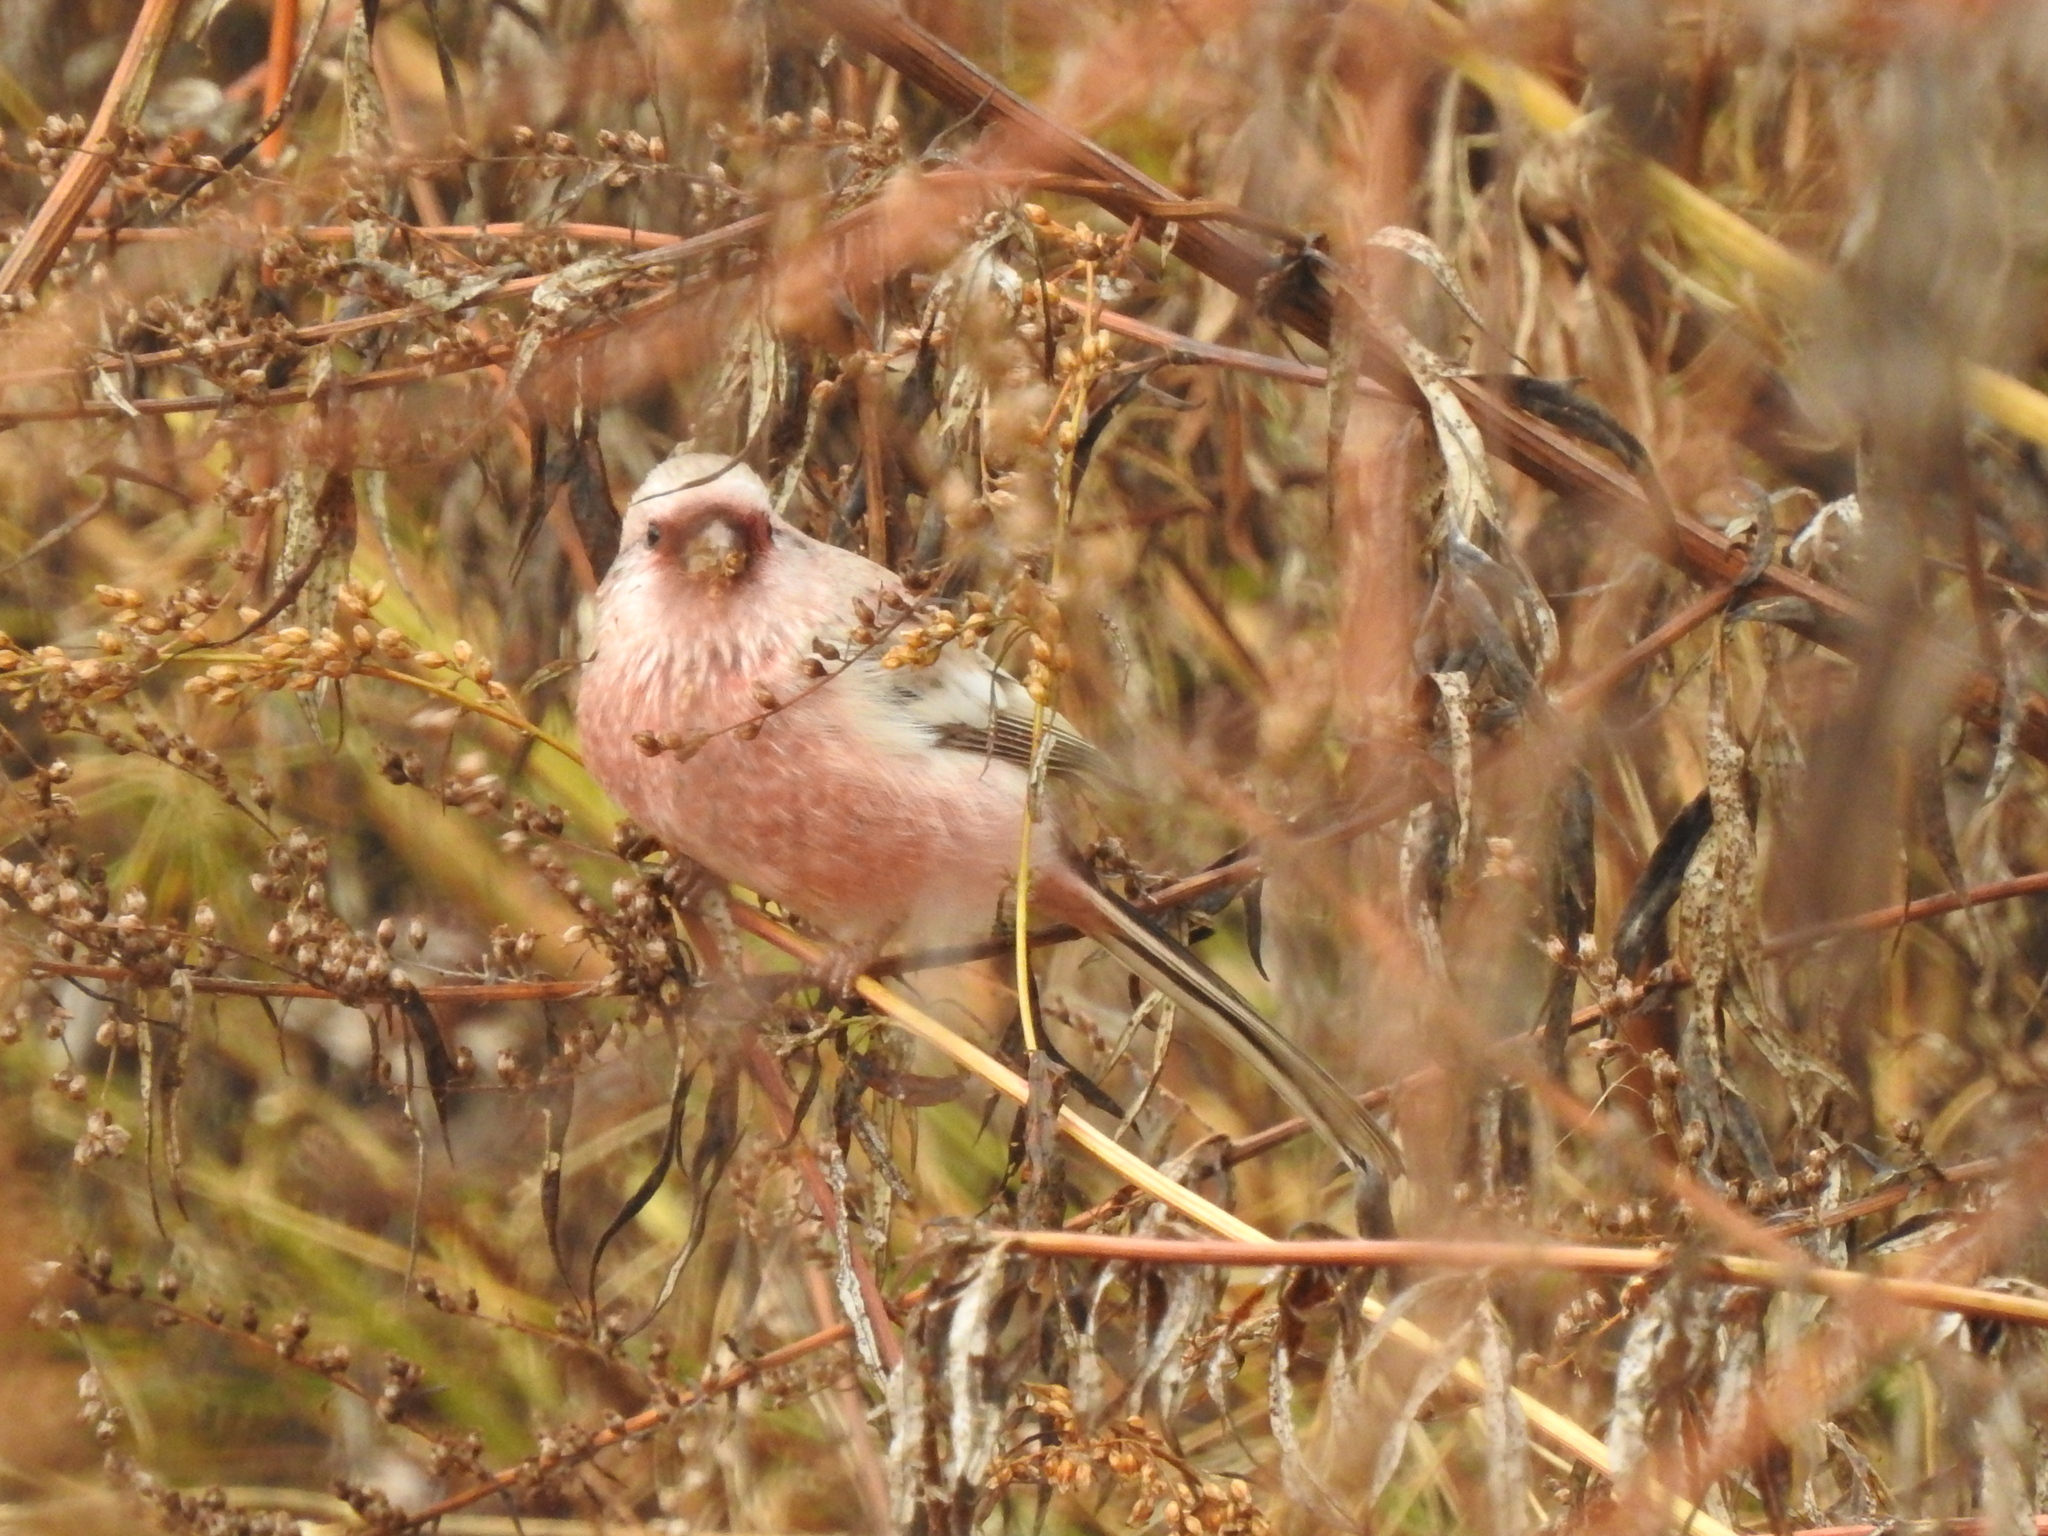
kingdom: Animalia
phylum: Chordata
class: Aves
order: Passeriformes
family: Fringillidae
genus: Carpodacus
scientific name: Carpodacus sibiricus
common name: Long-tailed rosefinch
